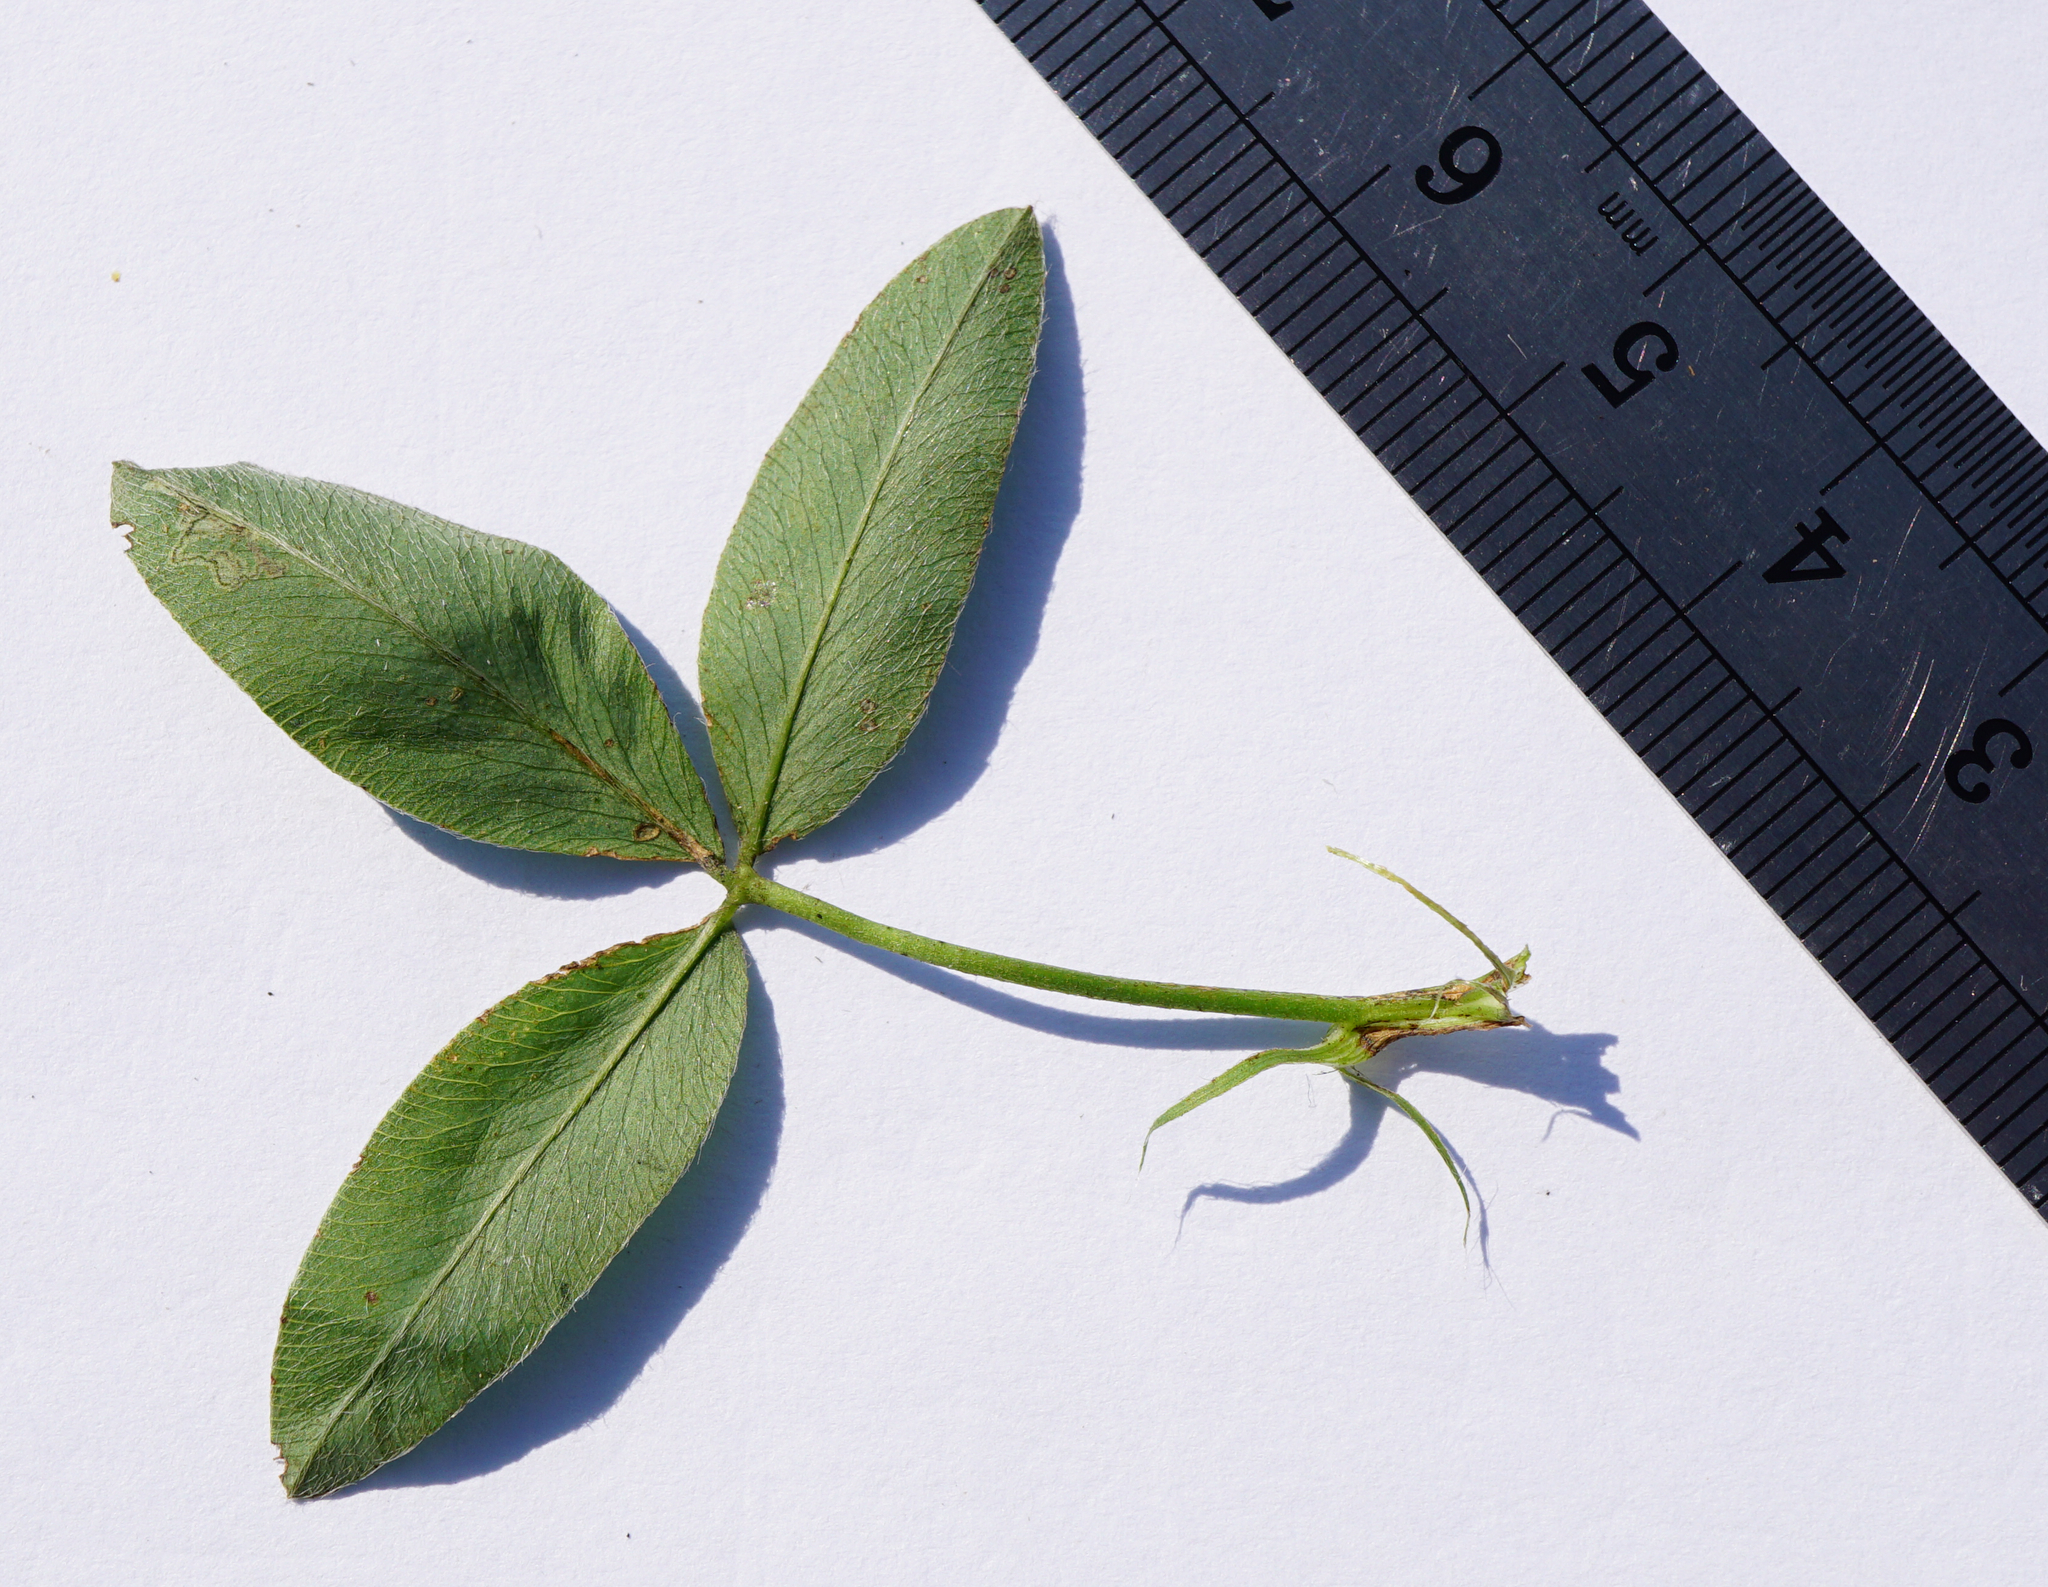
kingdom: Plantae
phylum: Tracheophyta
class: Magnoliopsida
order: Fabales
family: Fabaceae
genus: Trifolium
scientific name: Trifolium medium
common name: Zigzag clover
